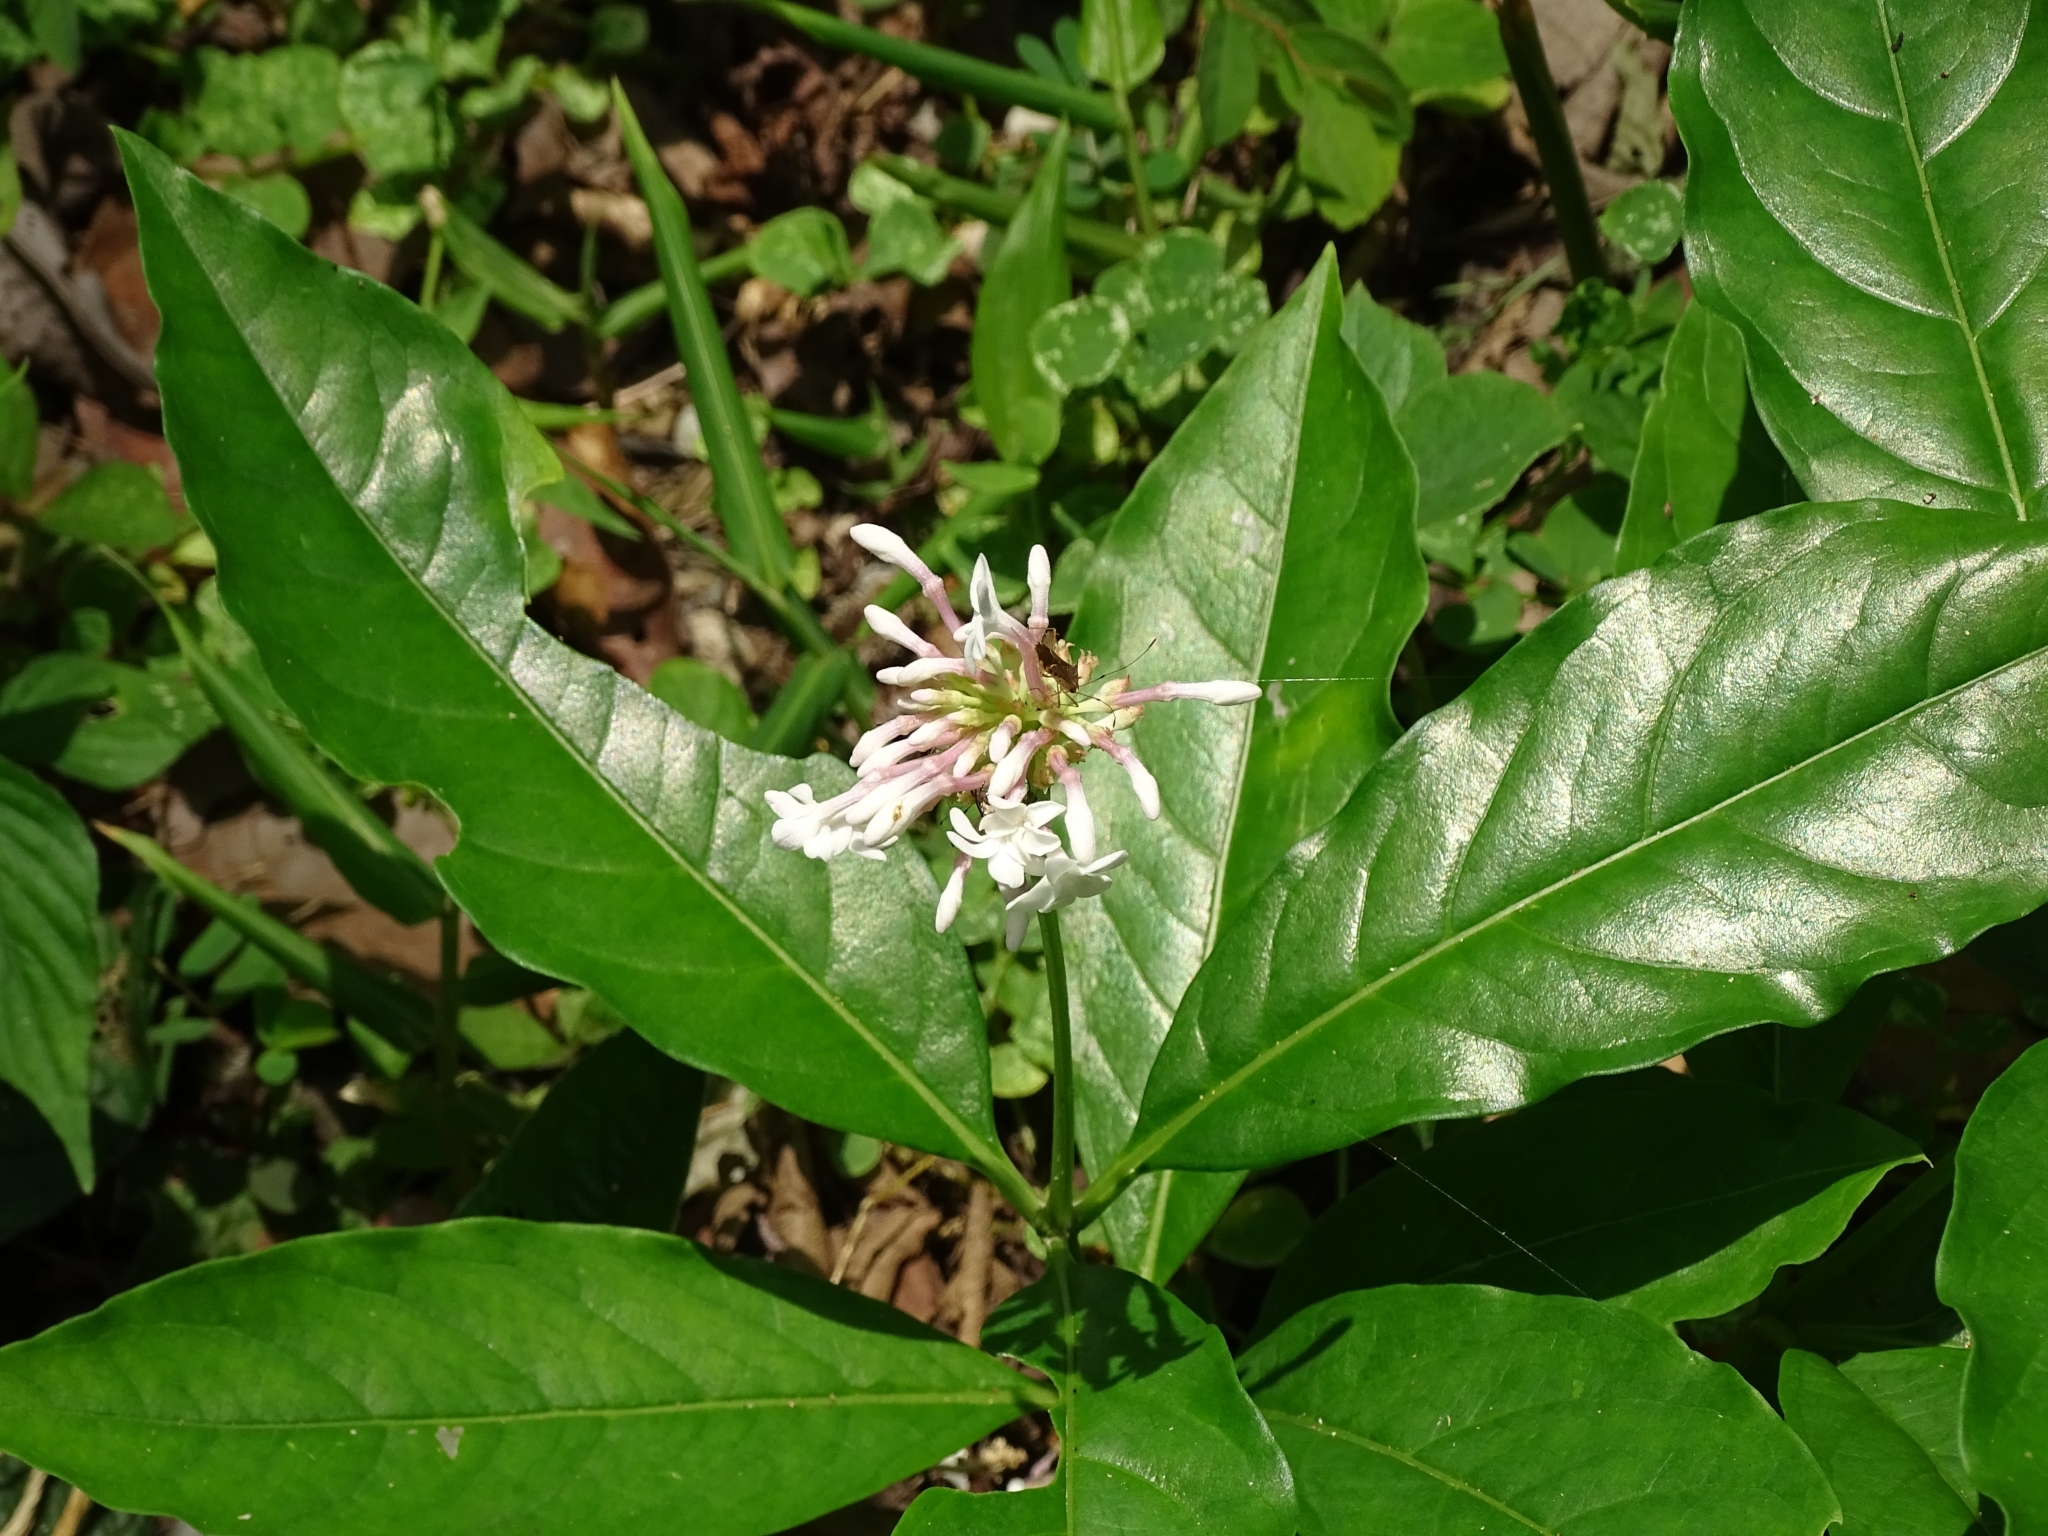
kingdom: Plantae
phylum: Tracheophyta
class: Magnoliopsida
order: Gentianales
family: Apocynaceae
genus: Rauvolfia
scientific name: Rauvolfia serpentina
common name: Ajmaline
